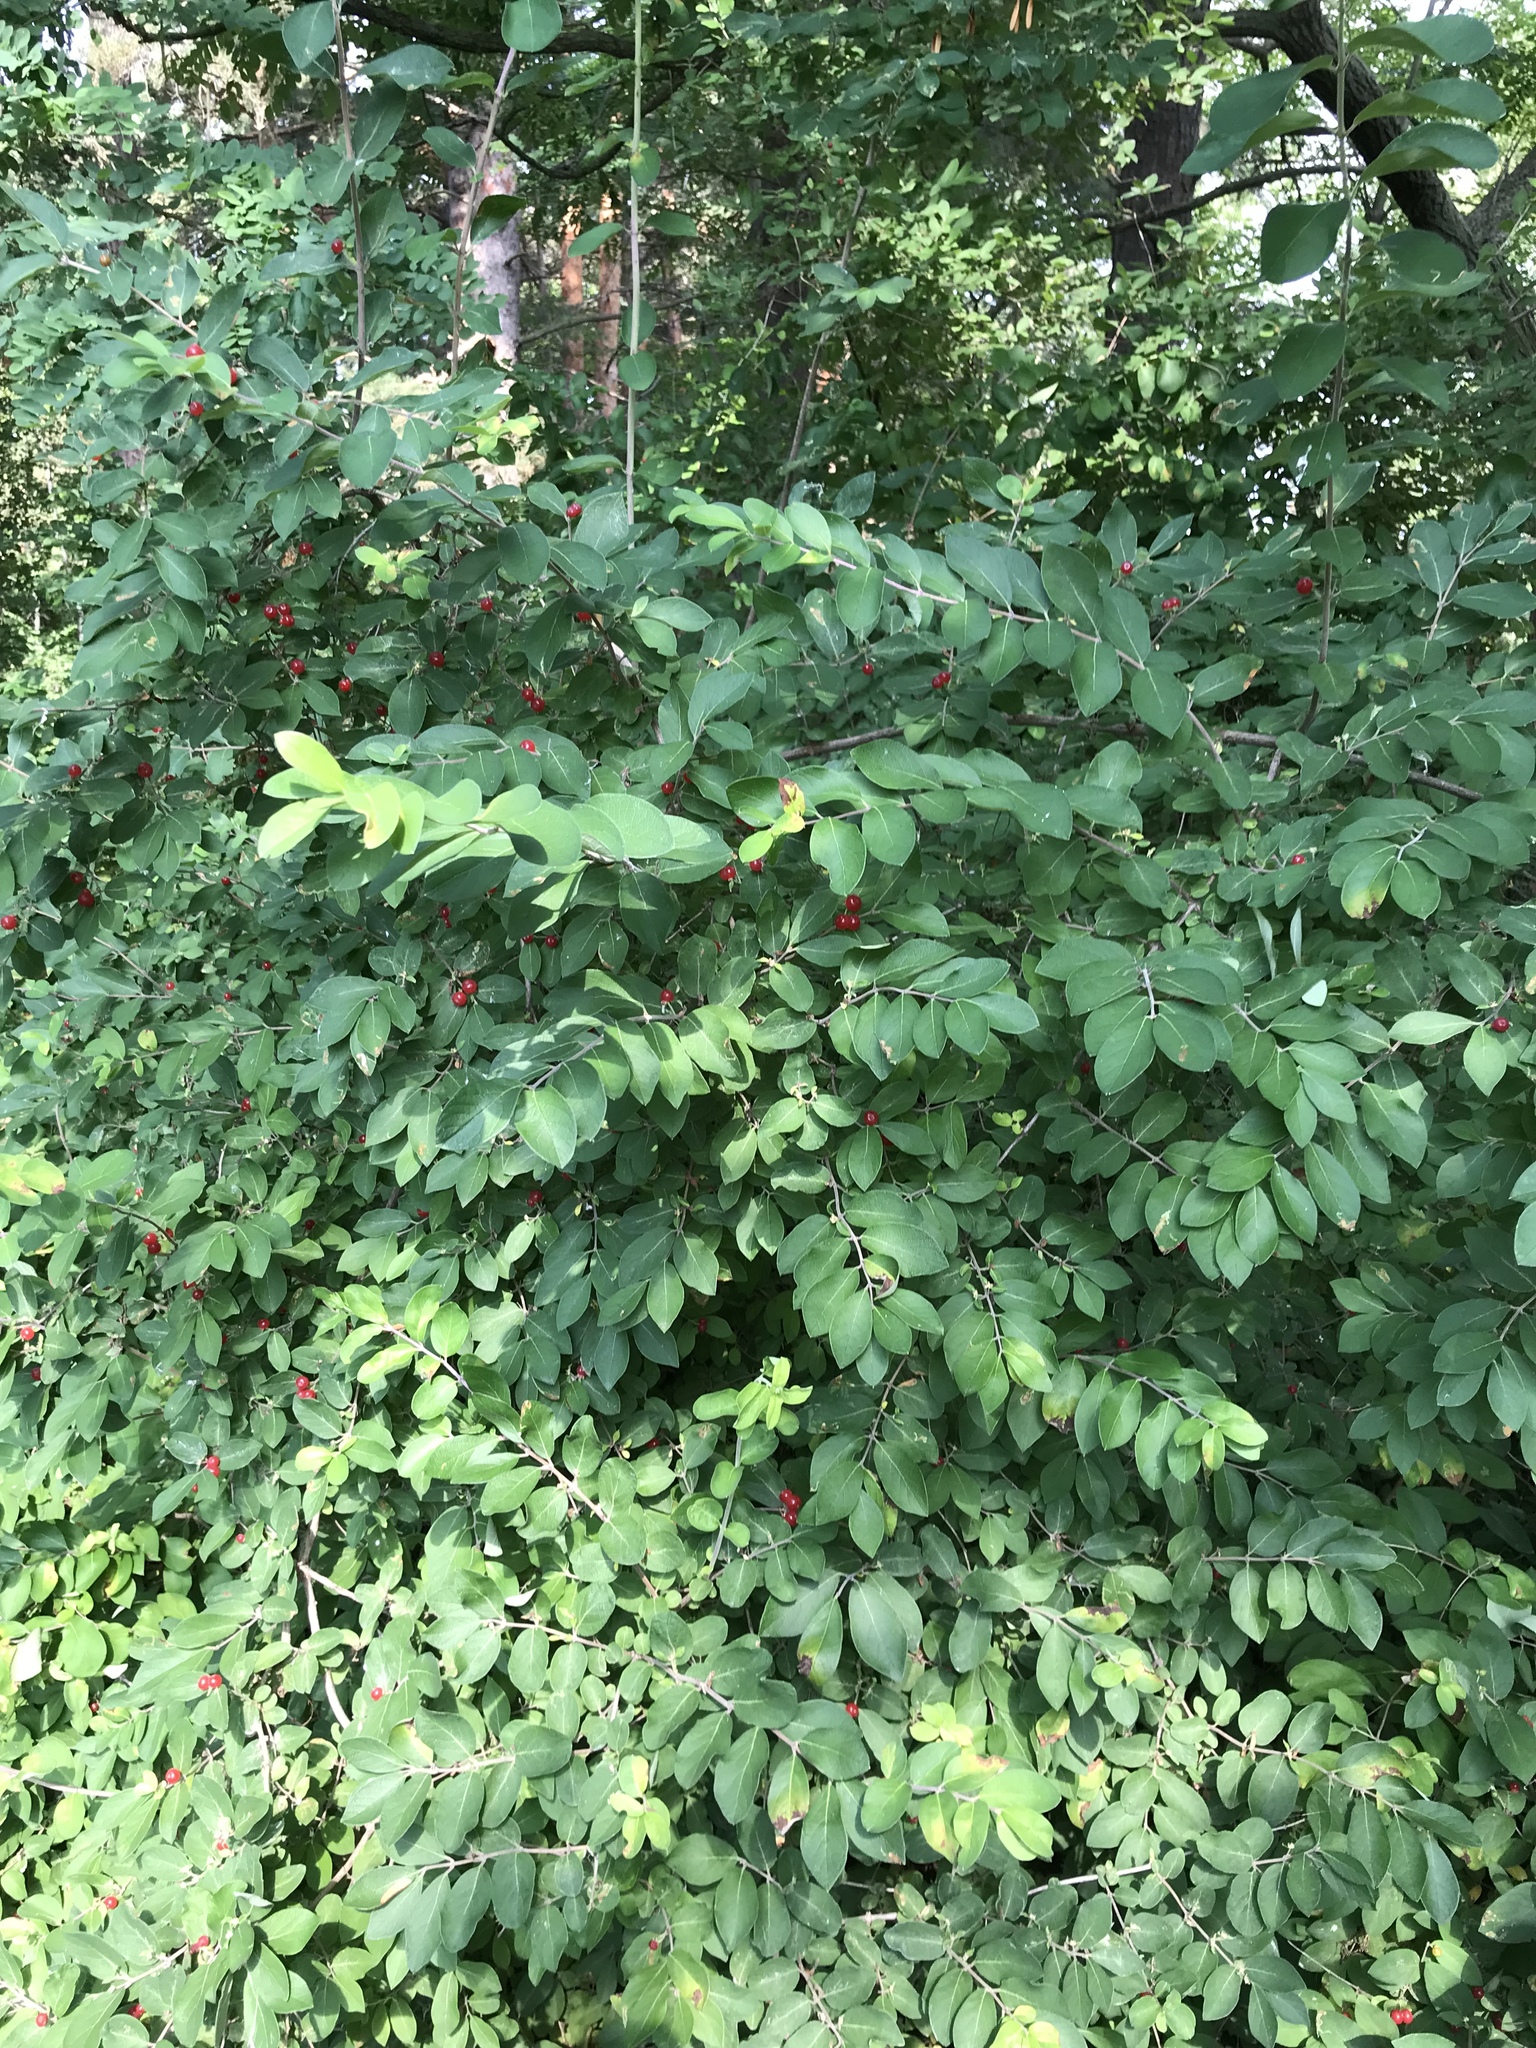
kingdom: Plantae
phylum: Tracheophyta
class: Magnoliopsida
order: Dipsacales
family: Caprifoliaceae
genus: Lonicera
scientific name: Lonicera morrowii
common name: Morrow's honeysuckle
